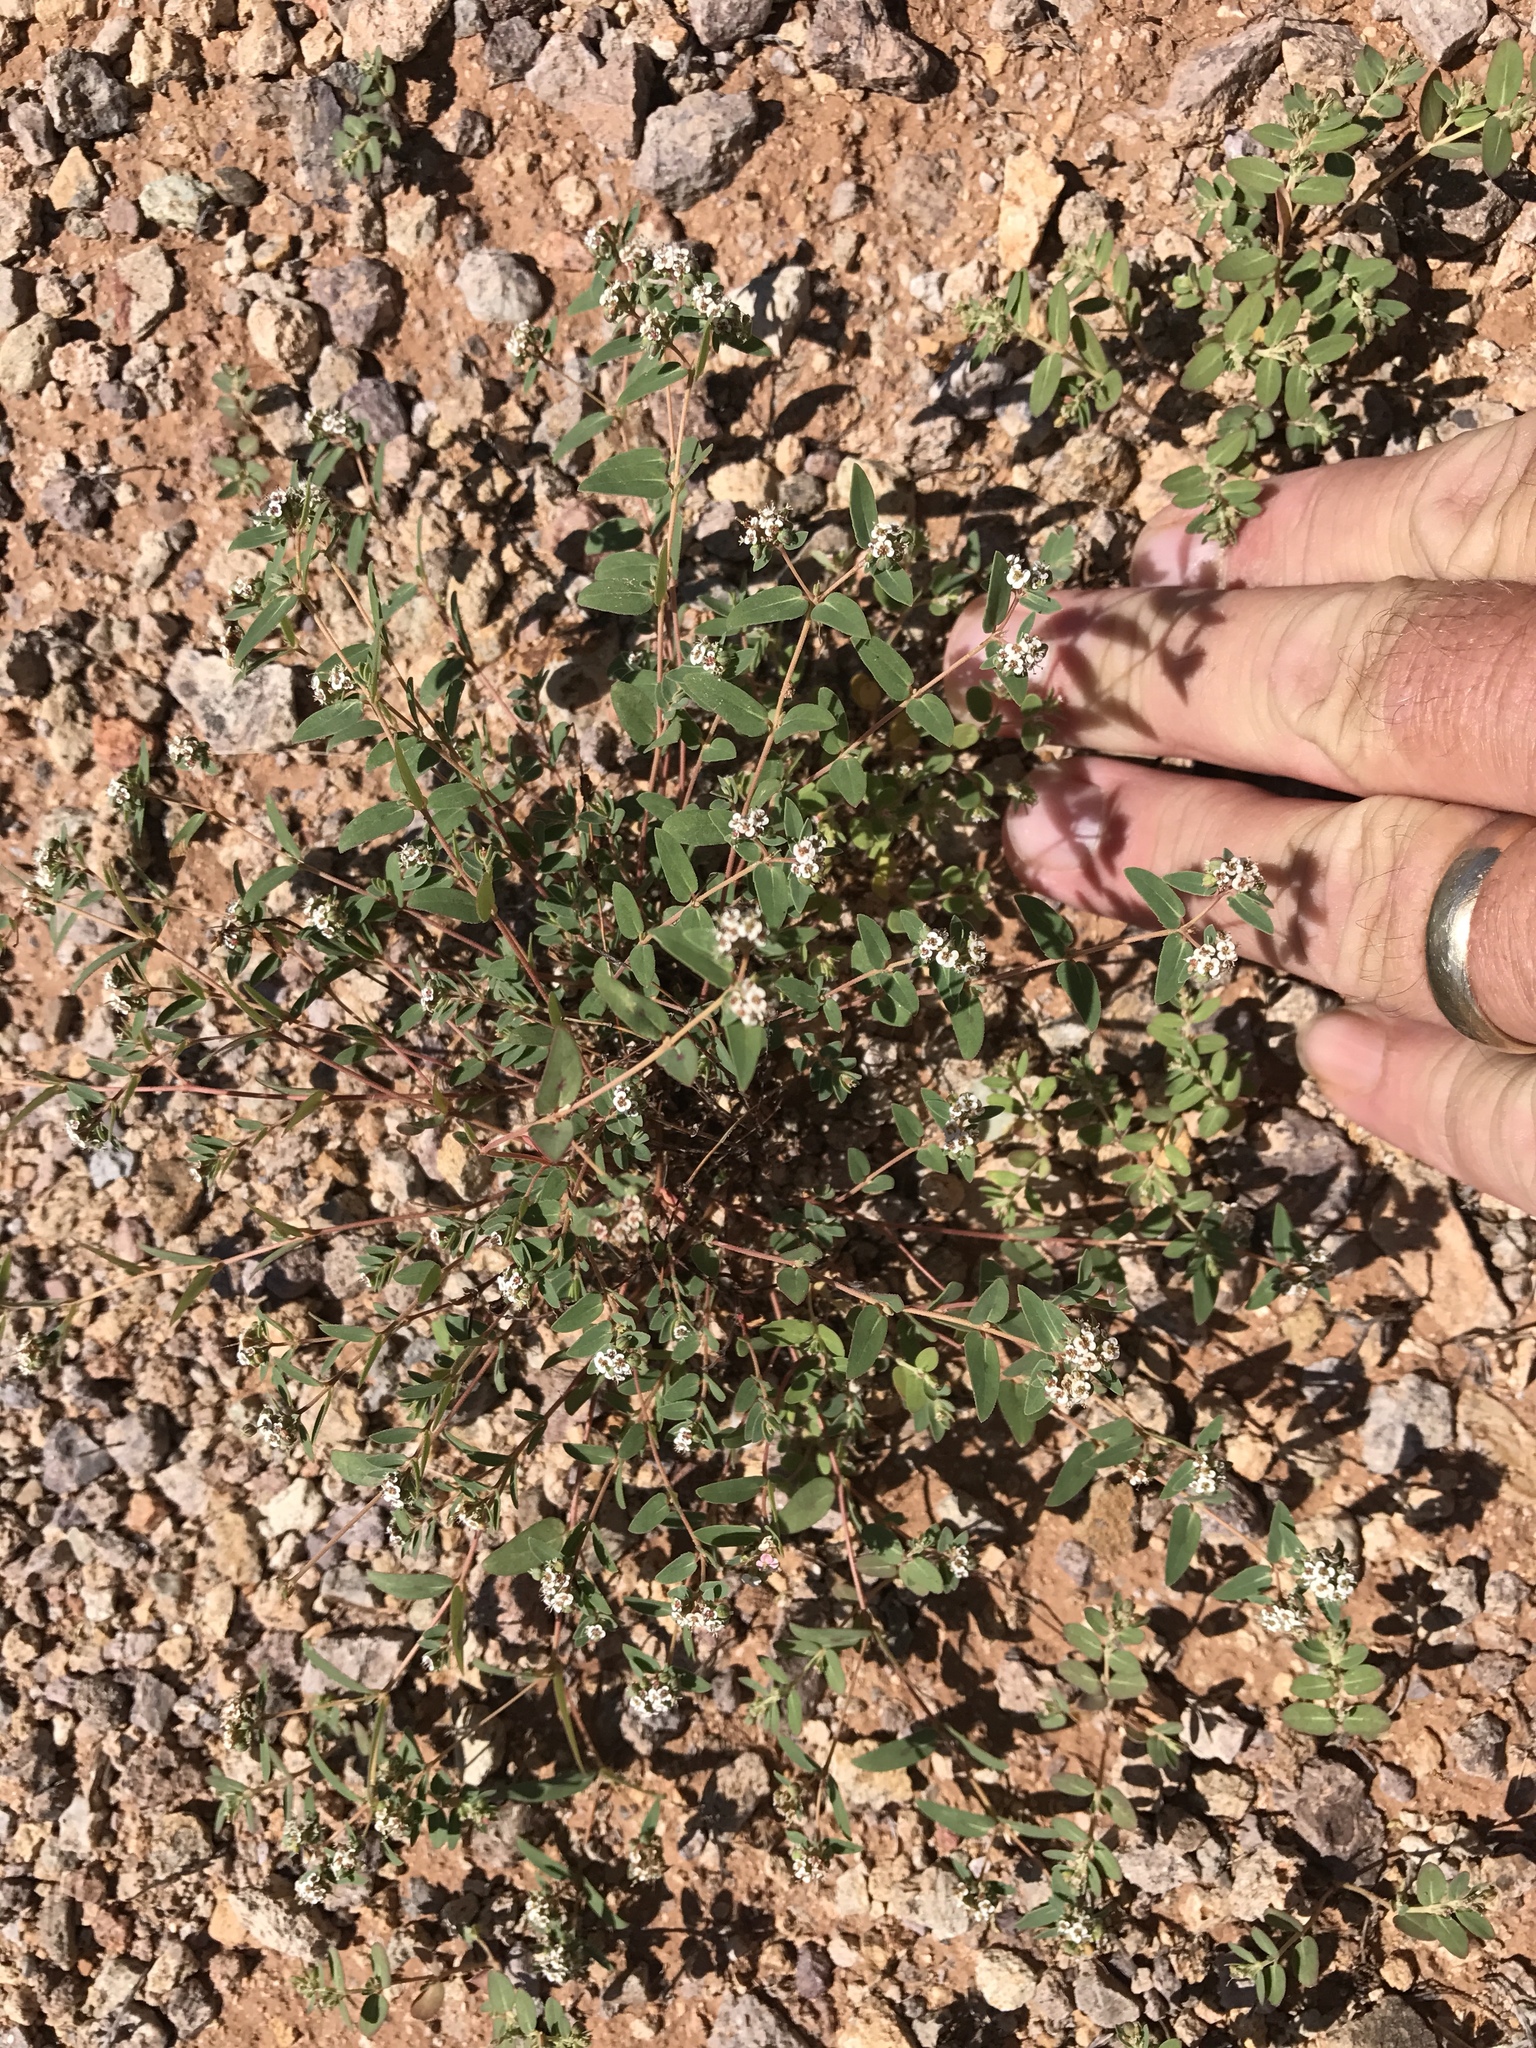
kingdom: Plantae
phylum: Tracheophyta
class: Magnoliopsida
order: Malpighiales
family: Euphorbiaceae
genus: Euphorbia
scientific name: Euphorbia capitellata
